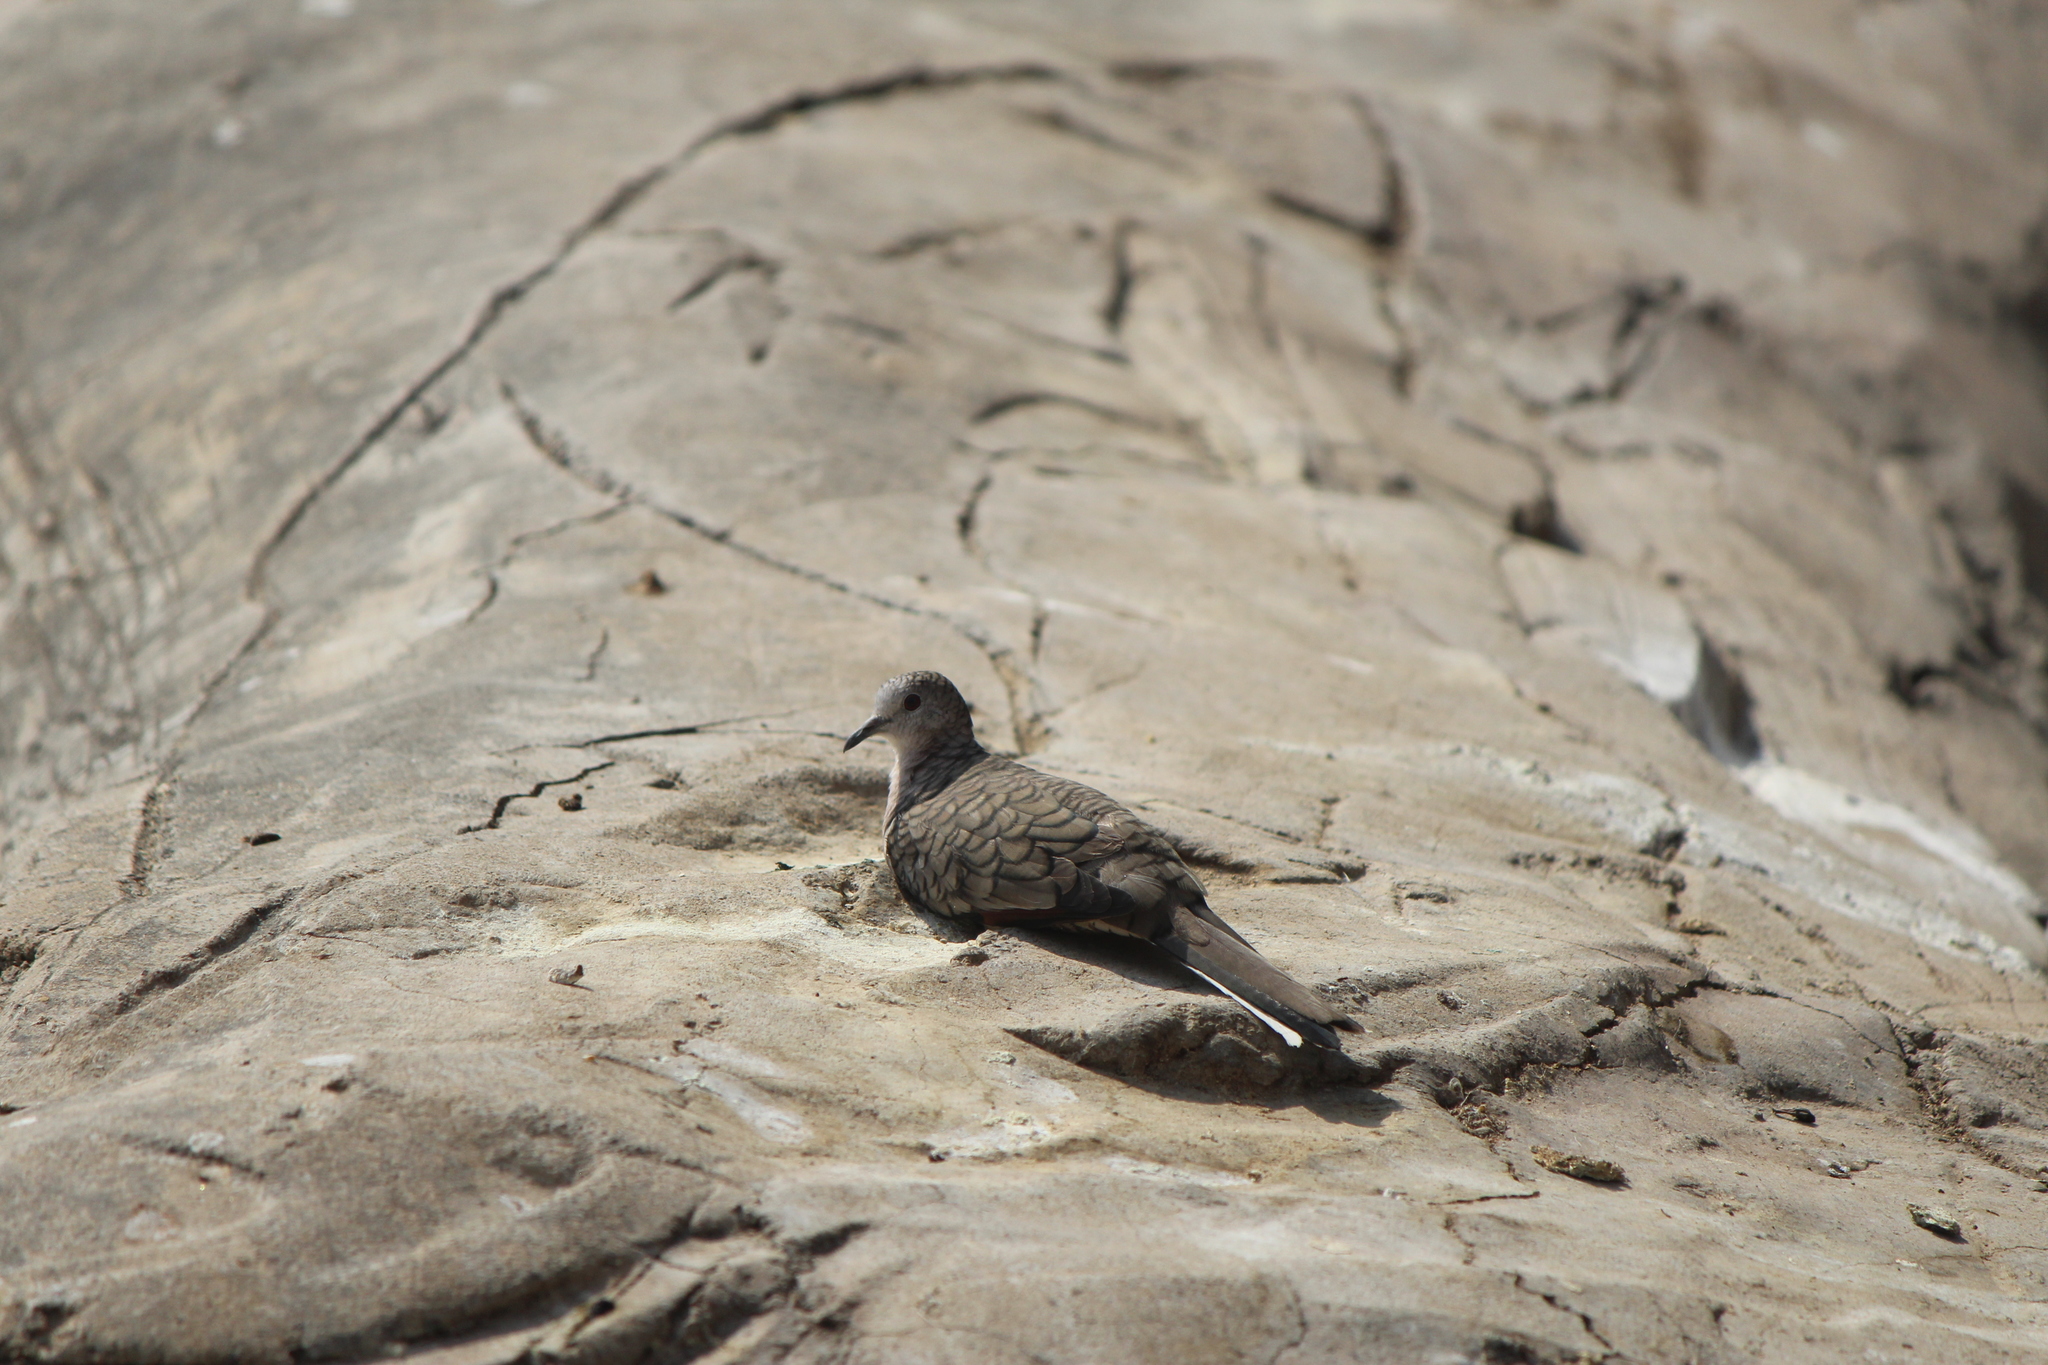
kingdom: Animalia
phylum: Chordata
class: Aves
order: Columbiformes
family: Columbidae
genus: Columbina
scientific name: Columbina inca
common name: Inca dove
